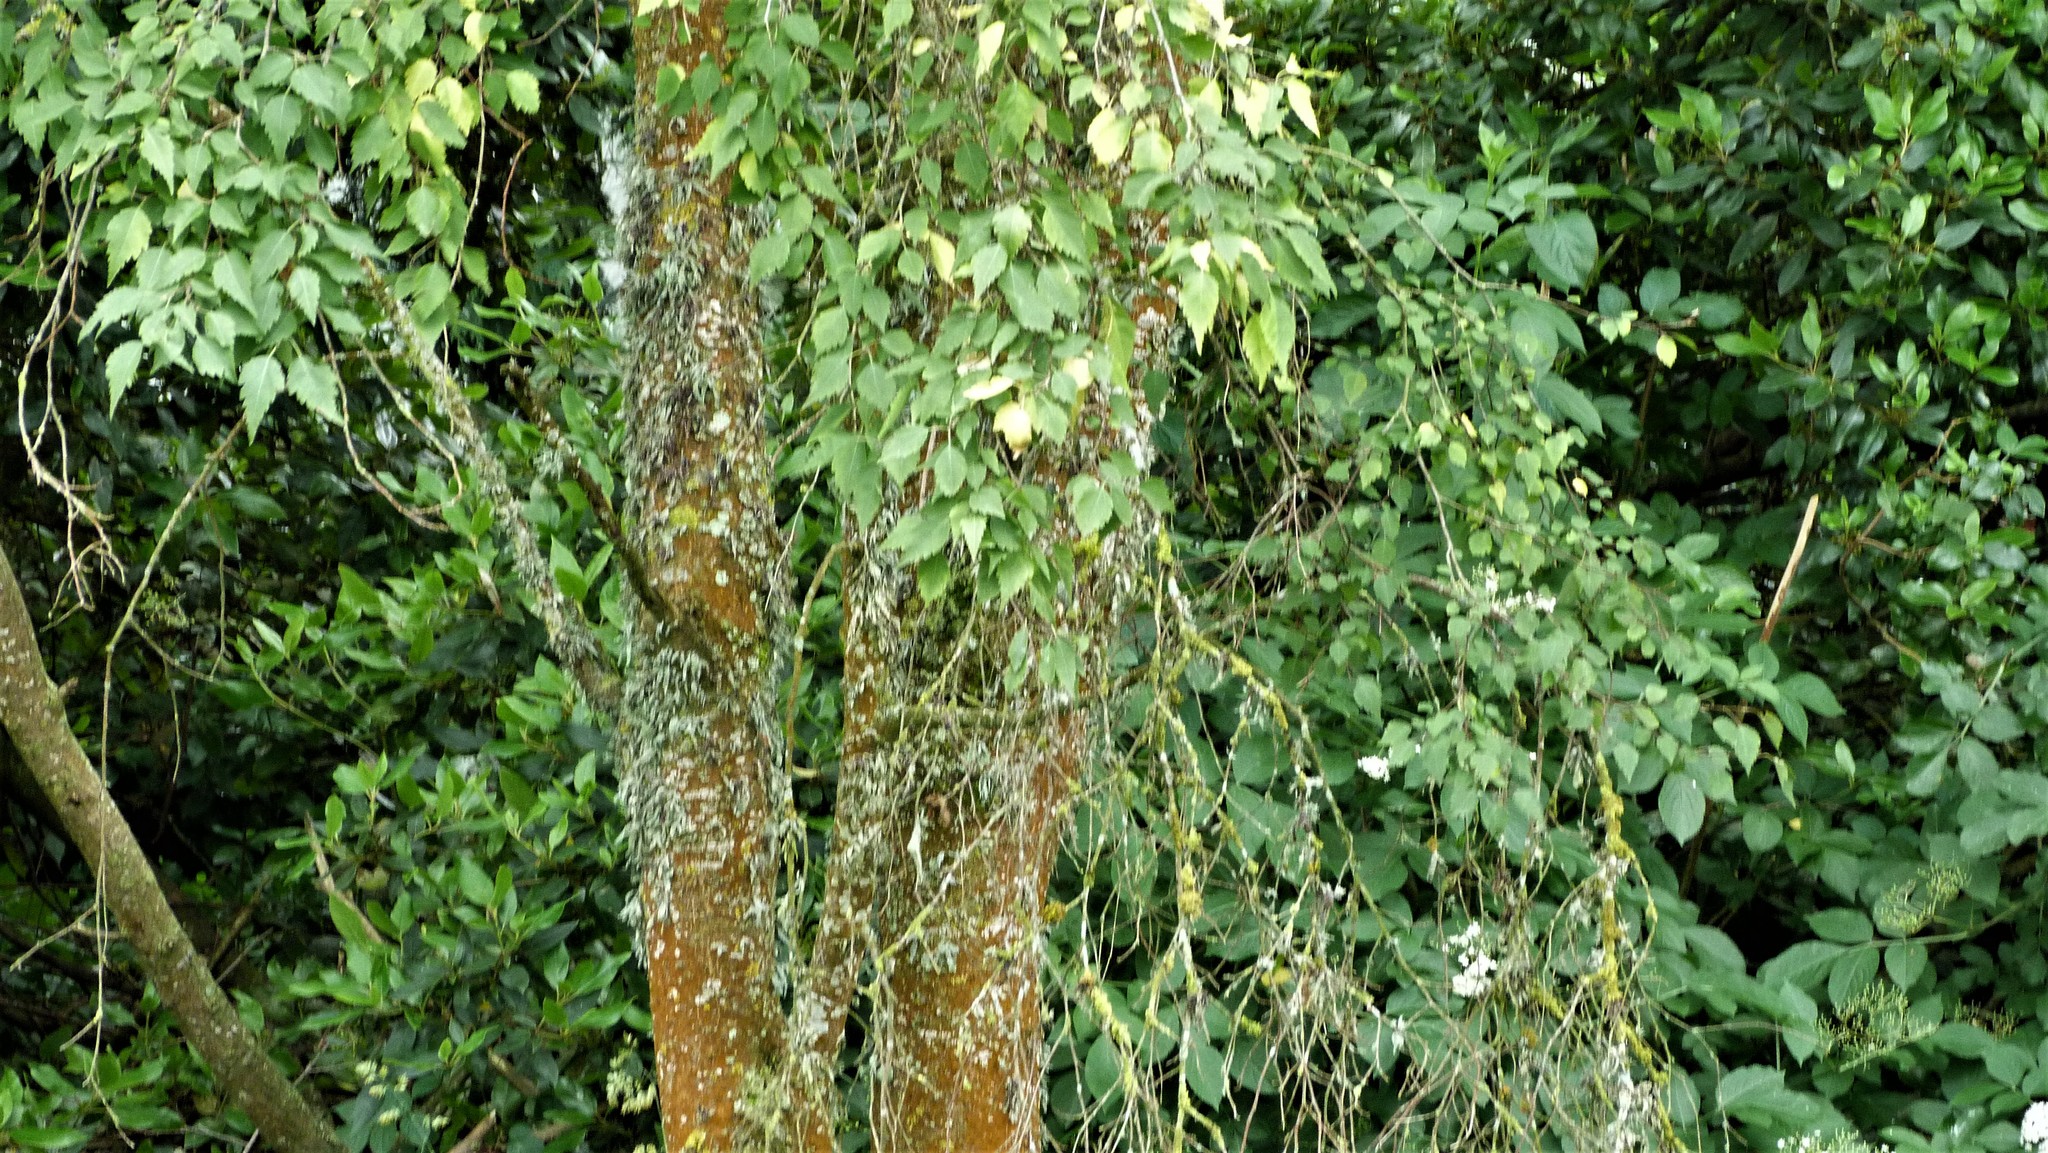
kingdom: Plantae
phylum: Tracheophyta
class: Magnoliopsida
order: Malvales
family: Malvaceae
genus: Plagianthus
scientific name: Plagianthus regius
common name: Manatu
